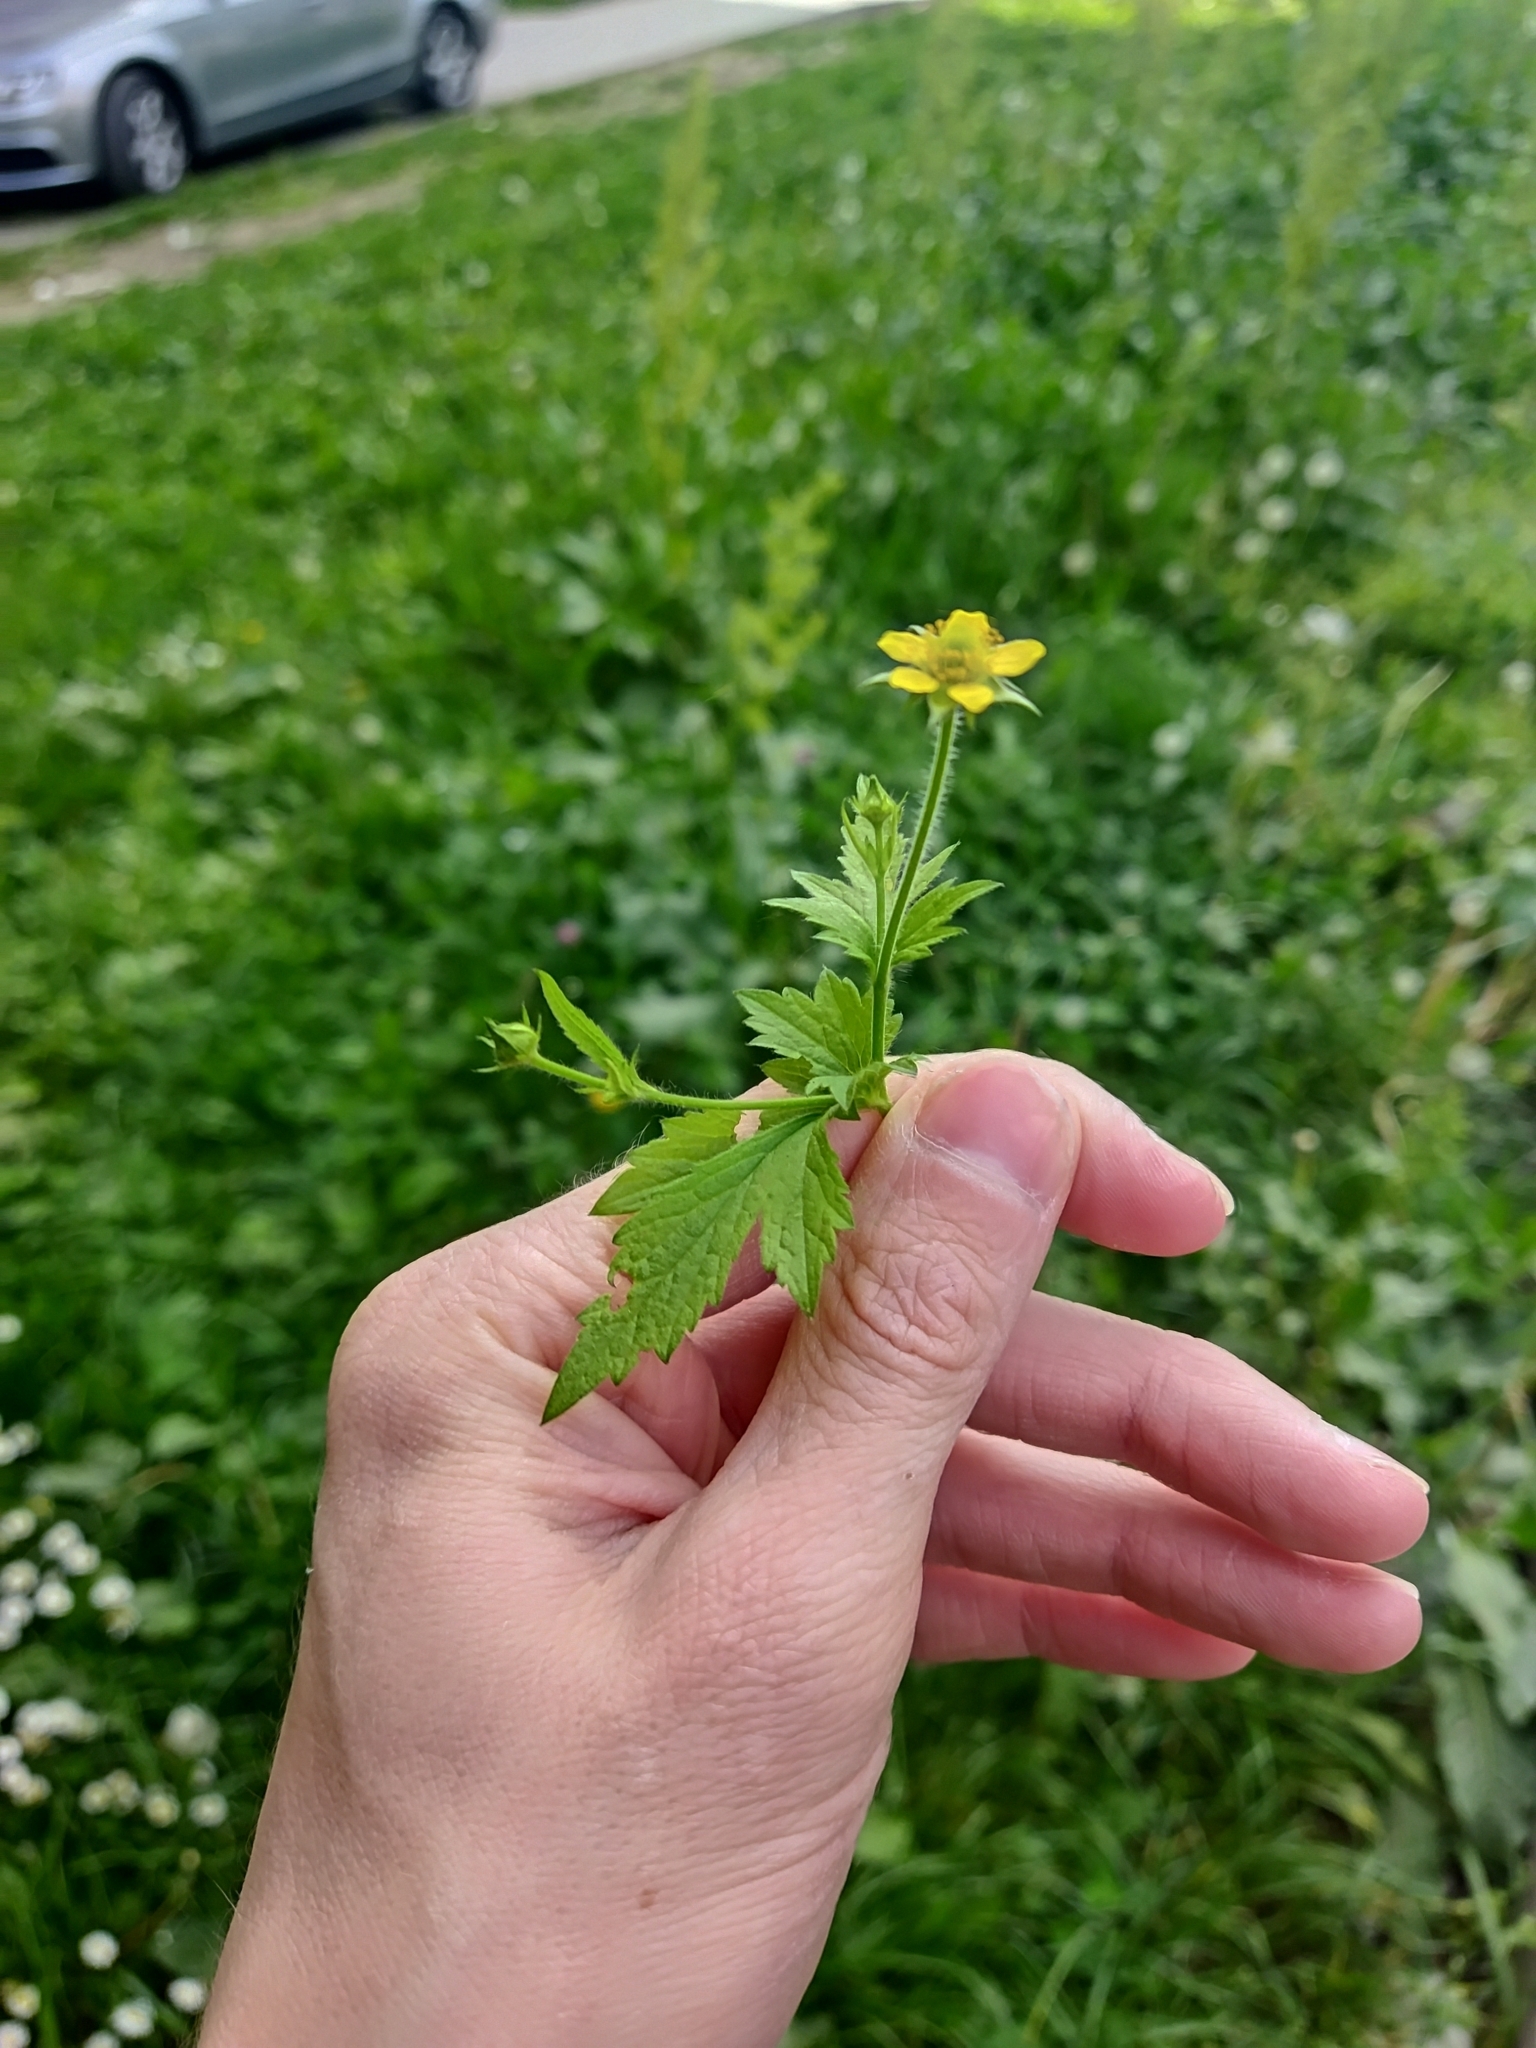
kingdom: Plantae
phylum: Tracheophyta
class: Magnoliopsida
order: Rosales
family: Rosaceae
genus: Geum
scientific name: Geum urbanum
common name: Wood avens
